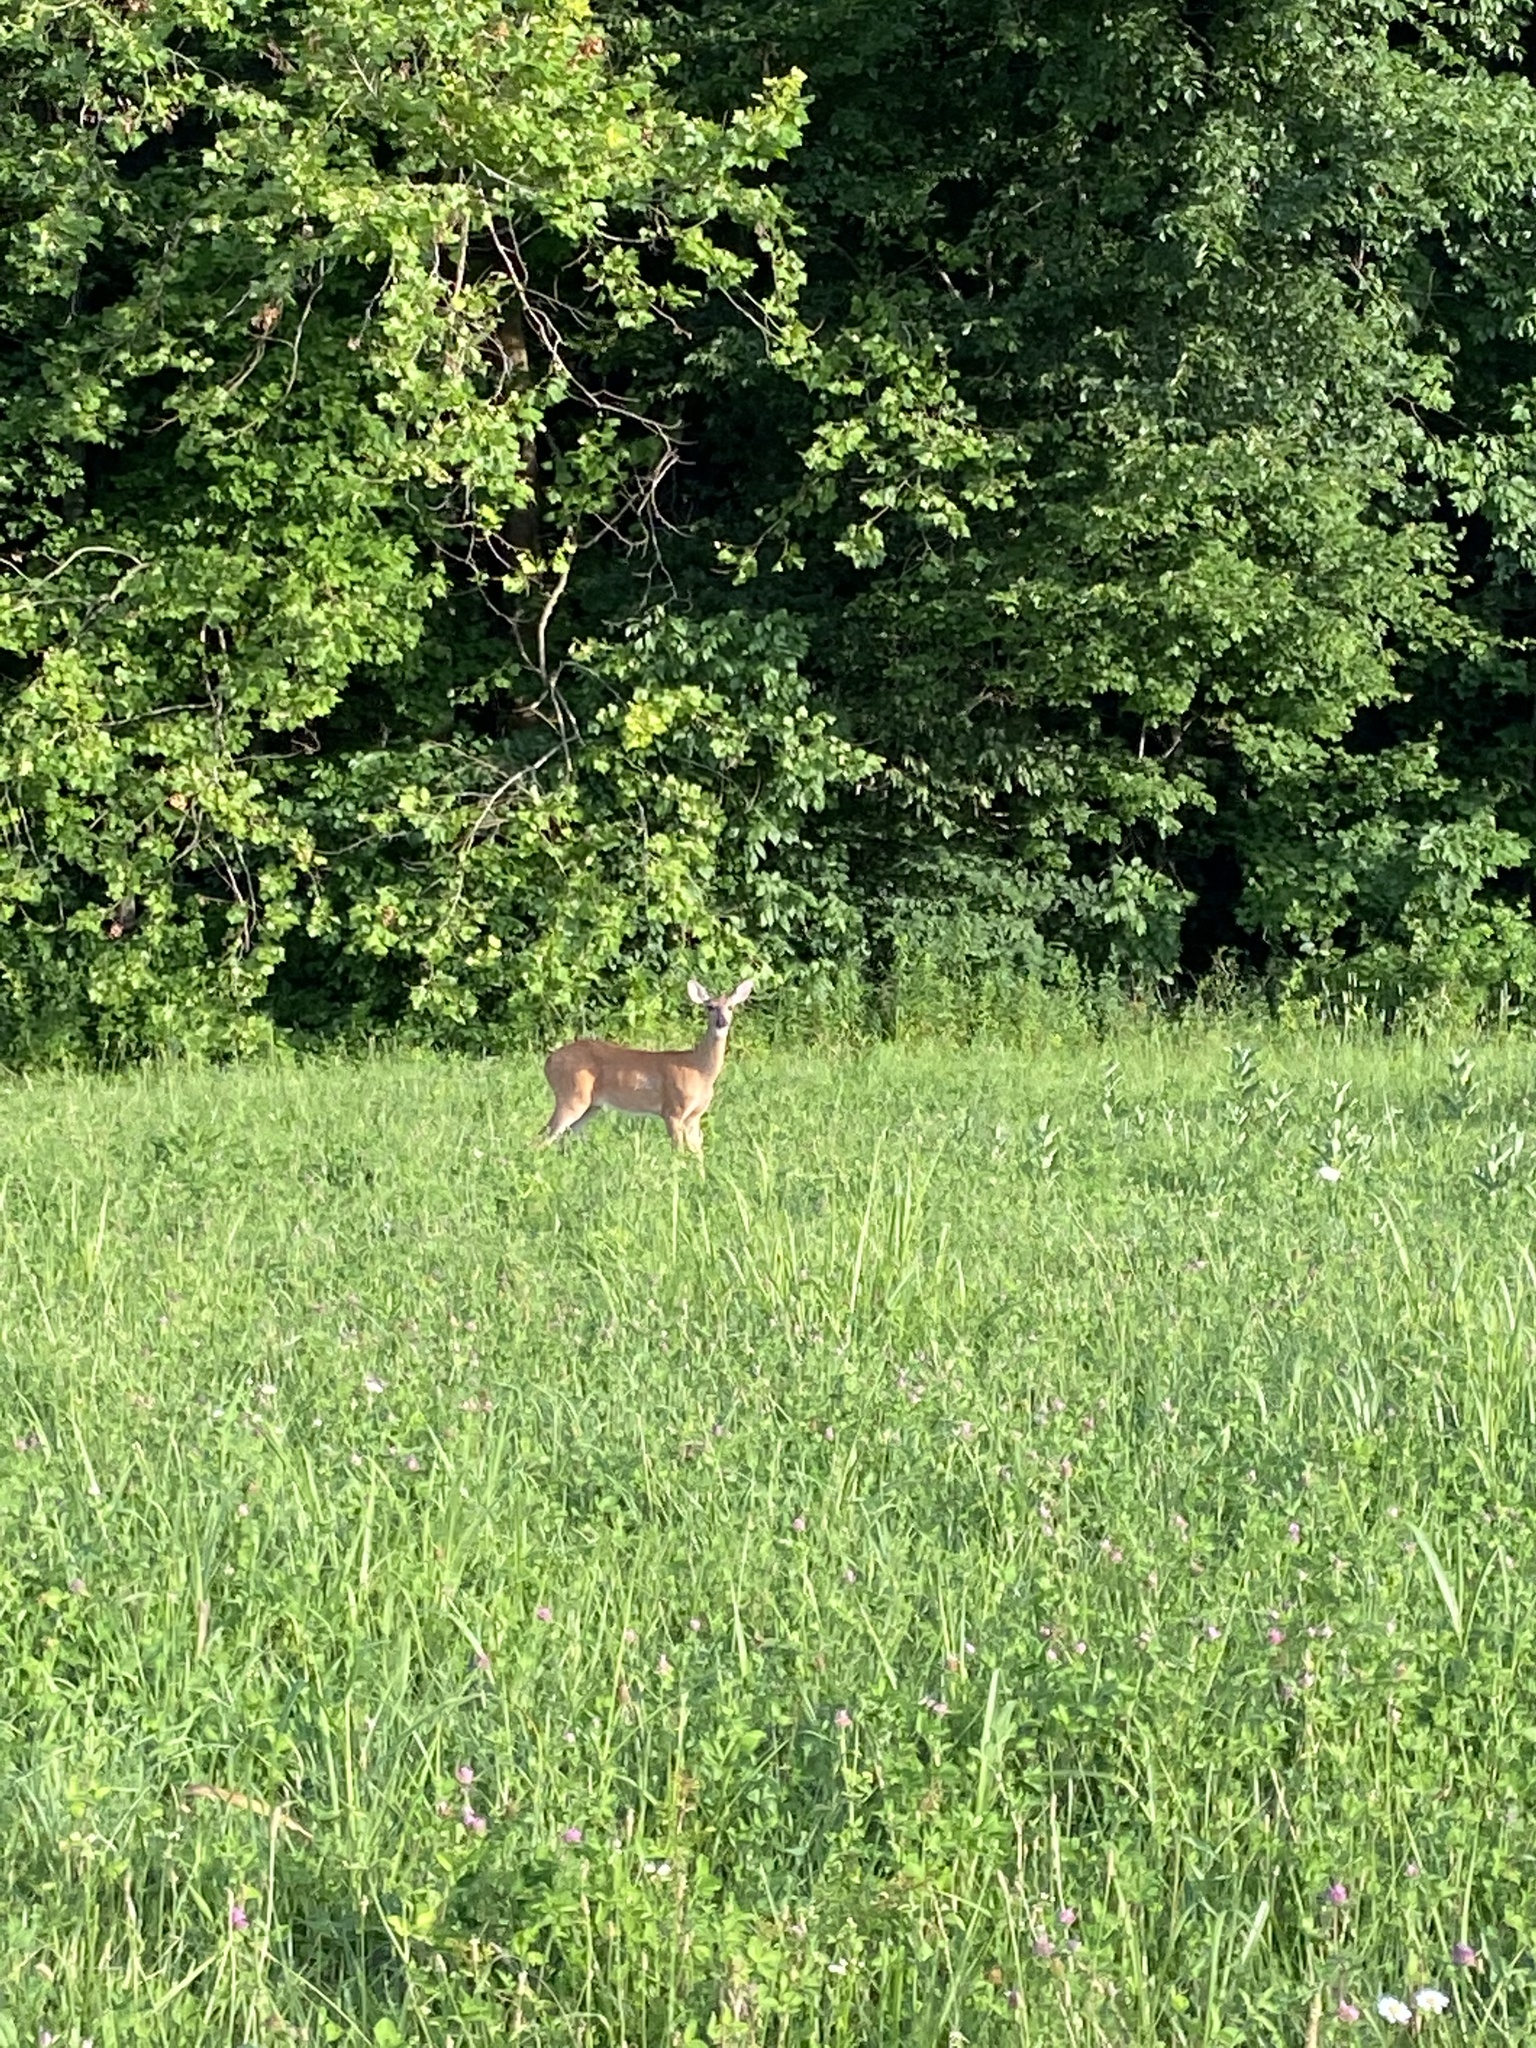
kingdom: Animalia
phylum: Chordata
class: Mammalia
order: Artiodactyla
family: Cervidae
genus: Odocoileus
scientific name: Odocoileus virginianus
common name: White-tailed deer
